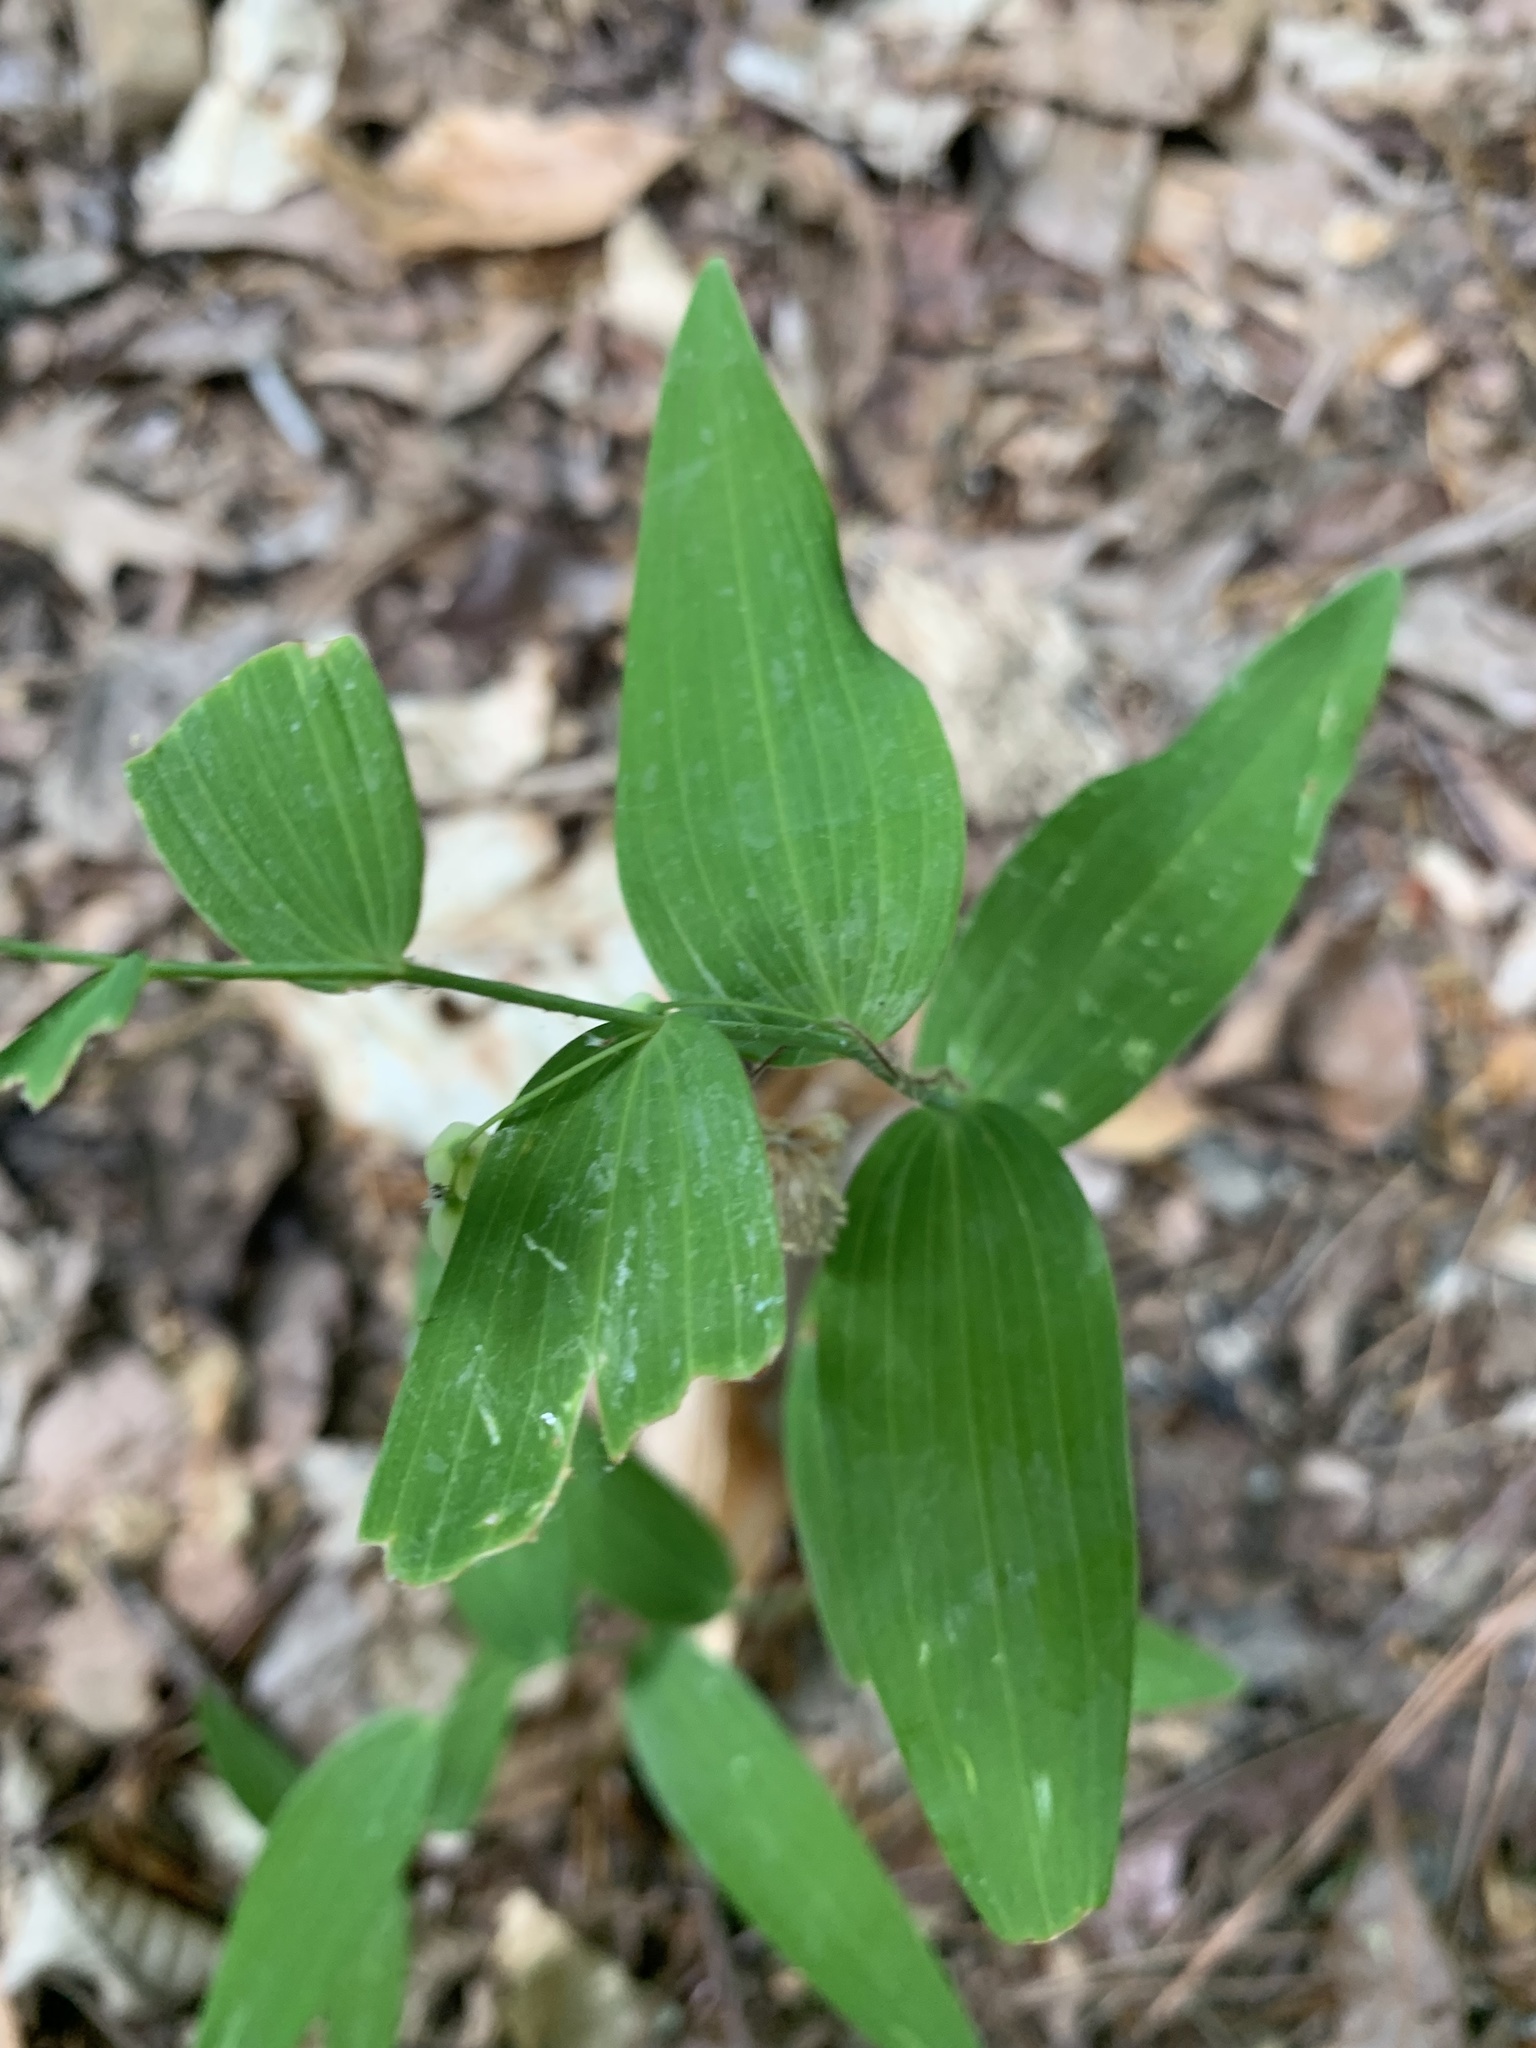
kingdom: Plantae
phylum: Tracheophyta
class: Liliopsida
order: Asparagales
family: Asparagaceae
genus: Polygonatum
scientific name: Polygonatum biflorum
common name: American solomon's-seal
